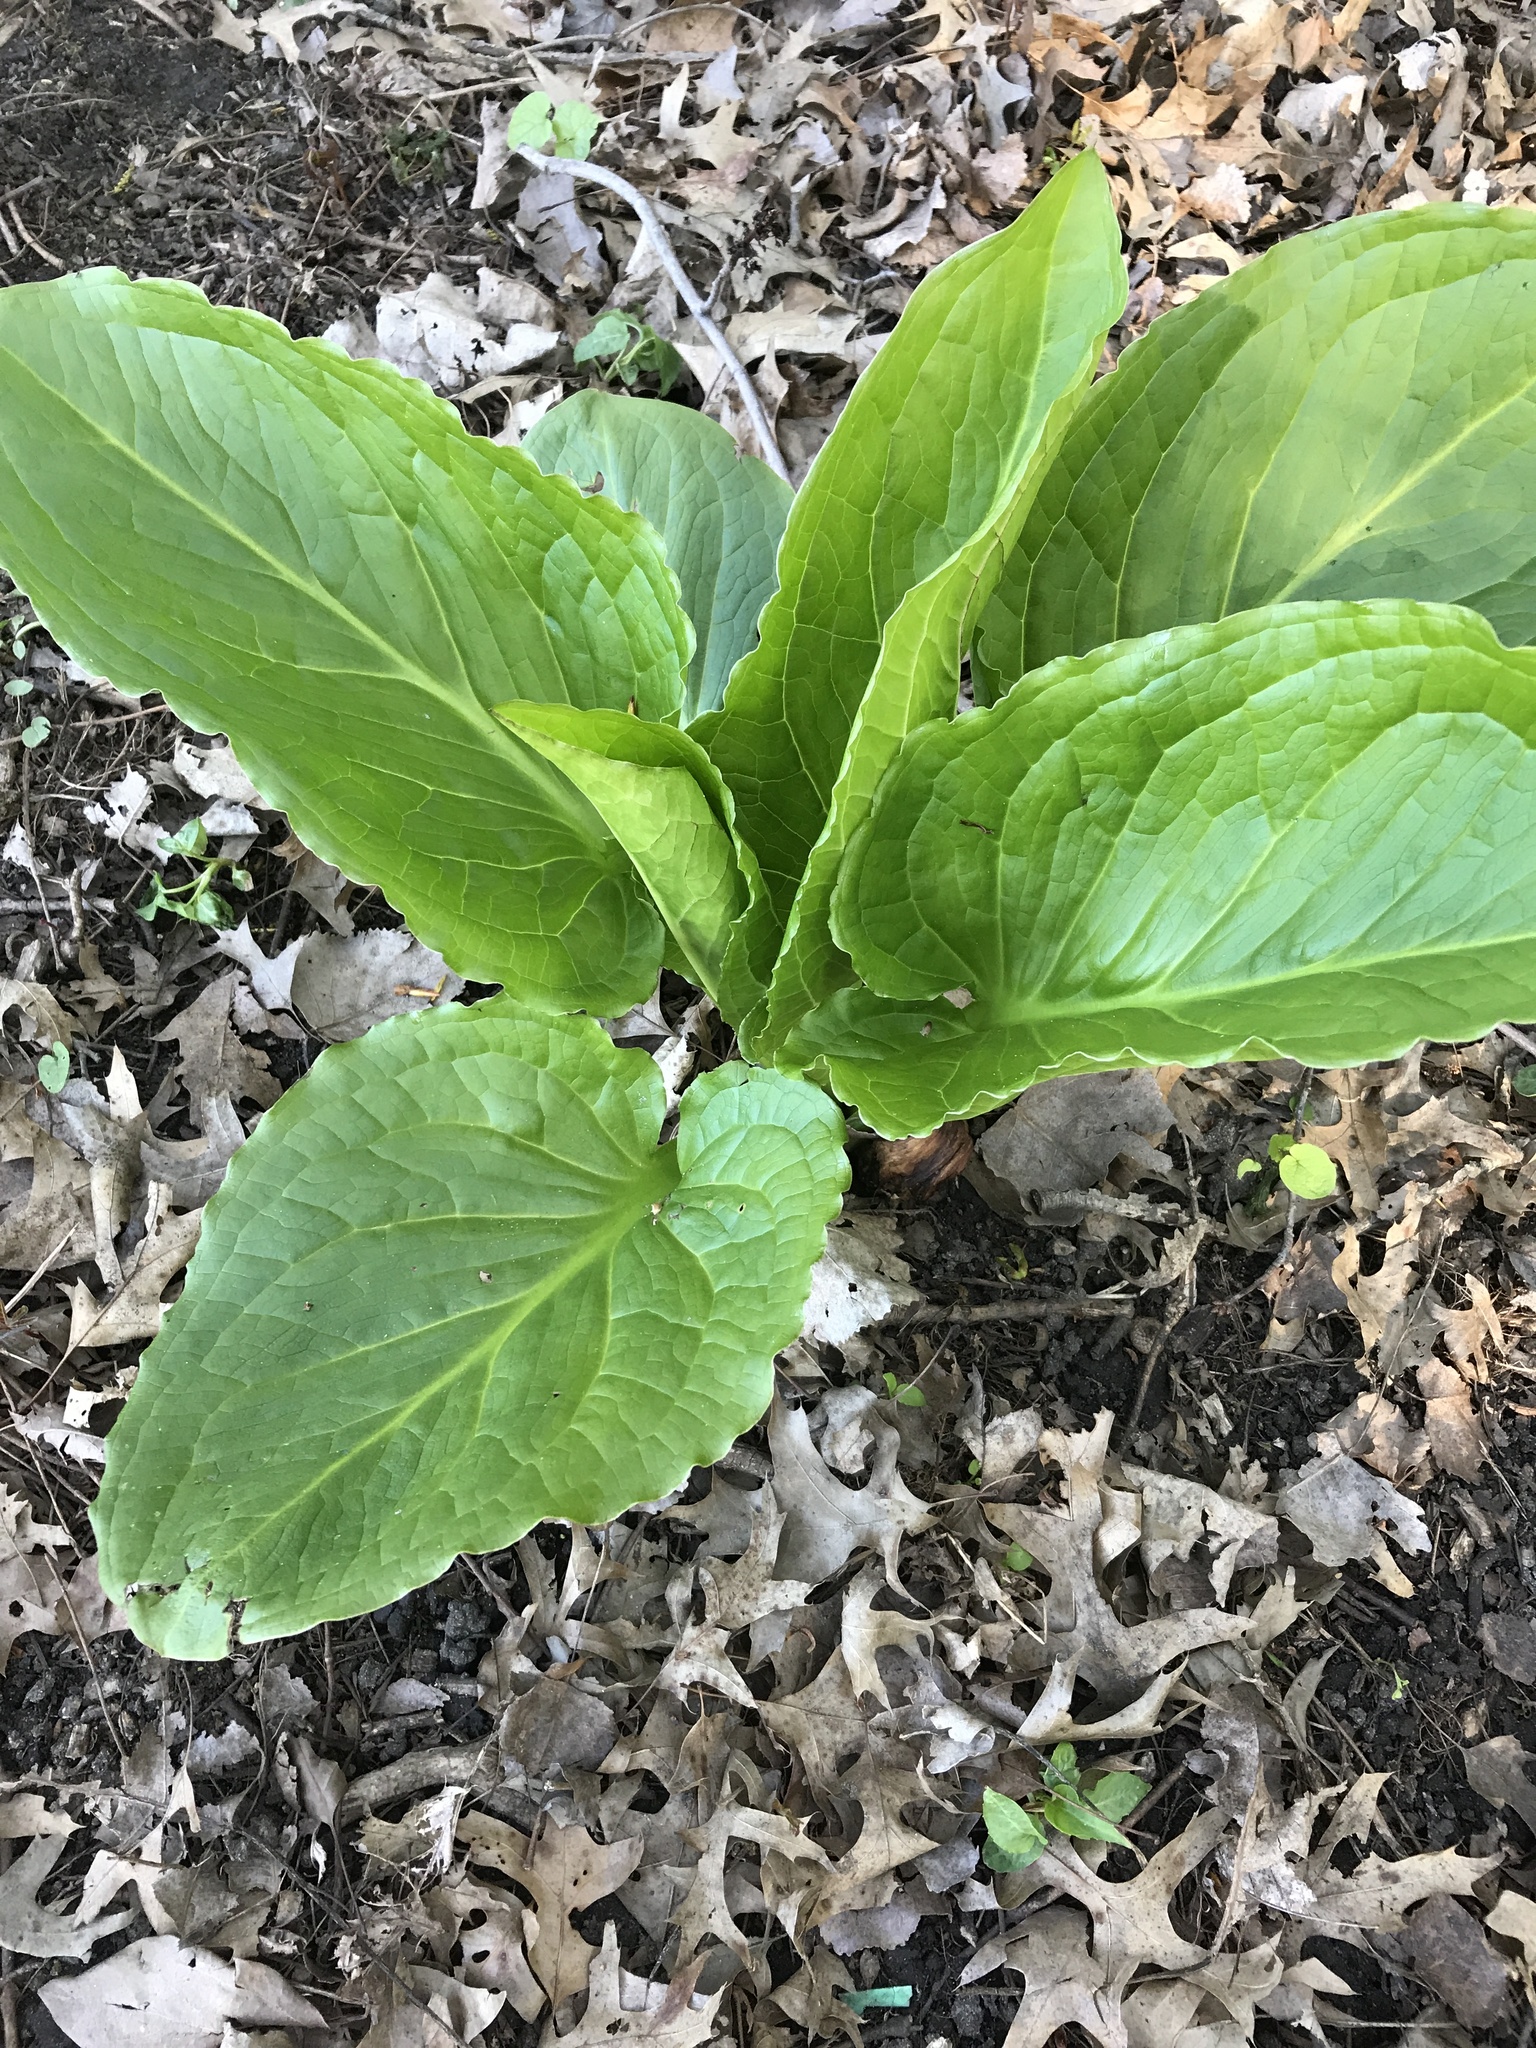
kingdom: Plantae
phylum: Tracheophyta
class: Liliopsida
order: Alismatales
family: Araceae
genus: Symplocarpus
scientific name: Symplocarpus foetidus
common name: Eastern skunk cabbage
